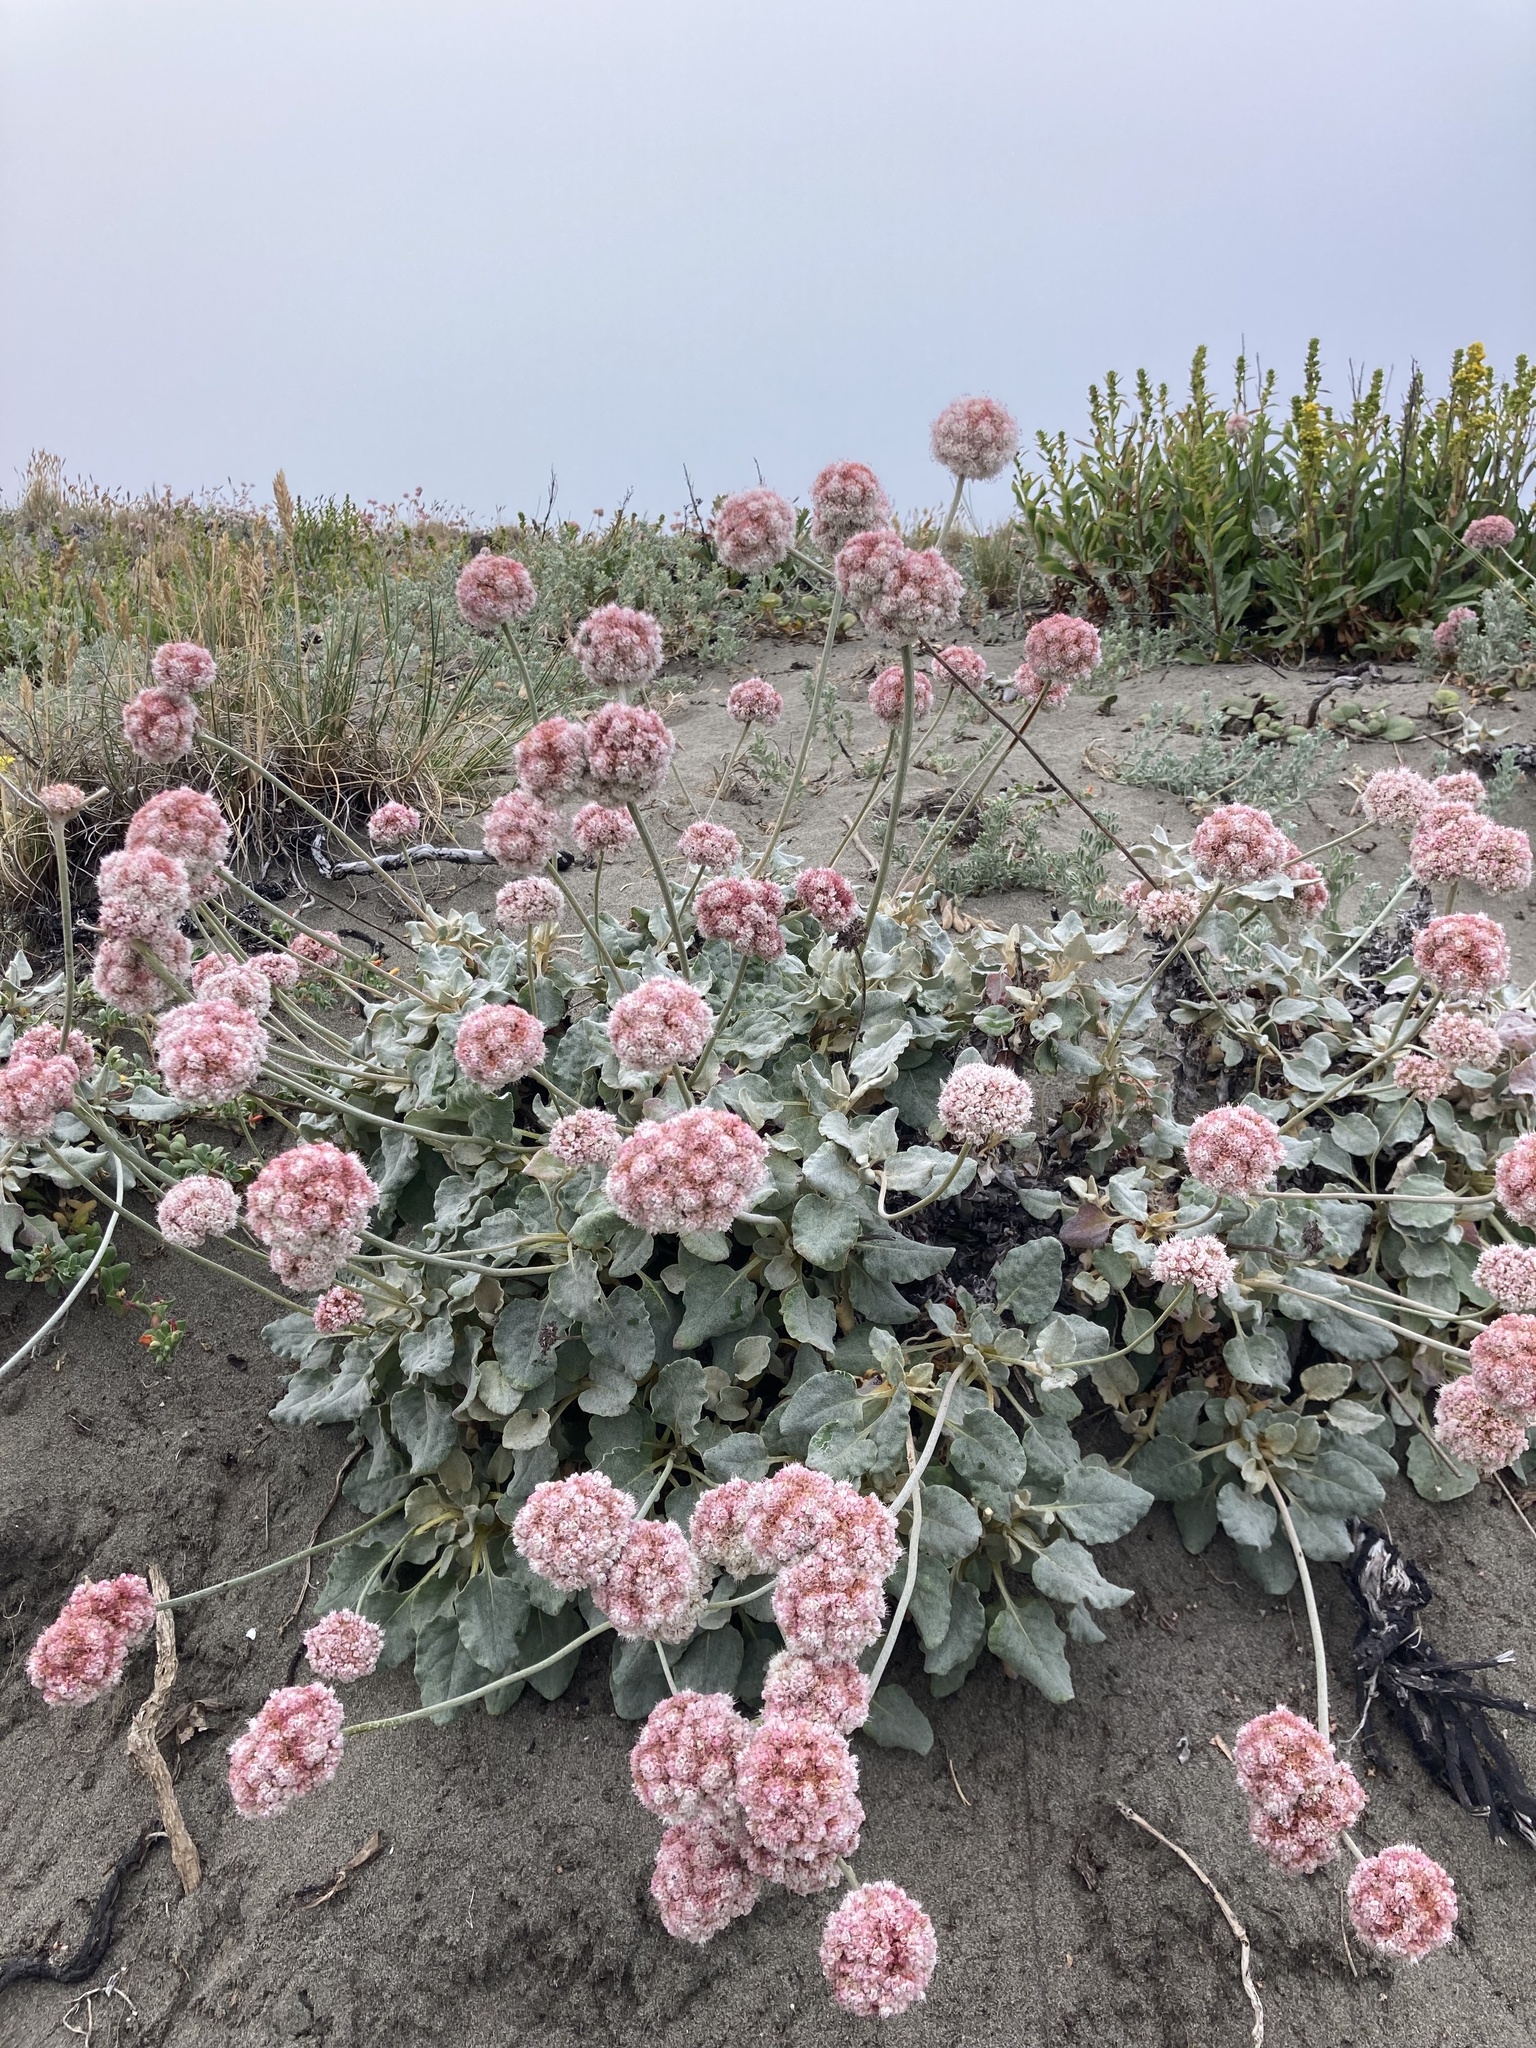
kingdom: Plantae
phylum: Tracheophyta
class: Magnoliopsida
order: Caryophyllales
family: Polygonaceae
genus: Eriogonum
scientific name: Eriogonum latifolium
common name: Seaside wild buckwheat
